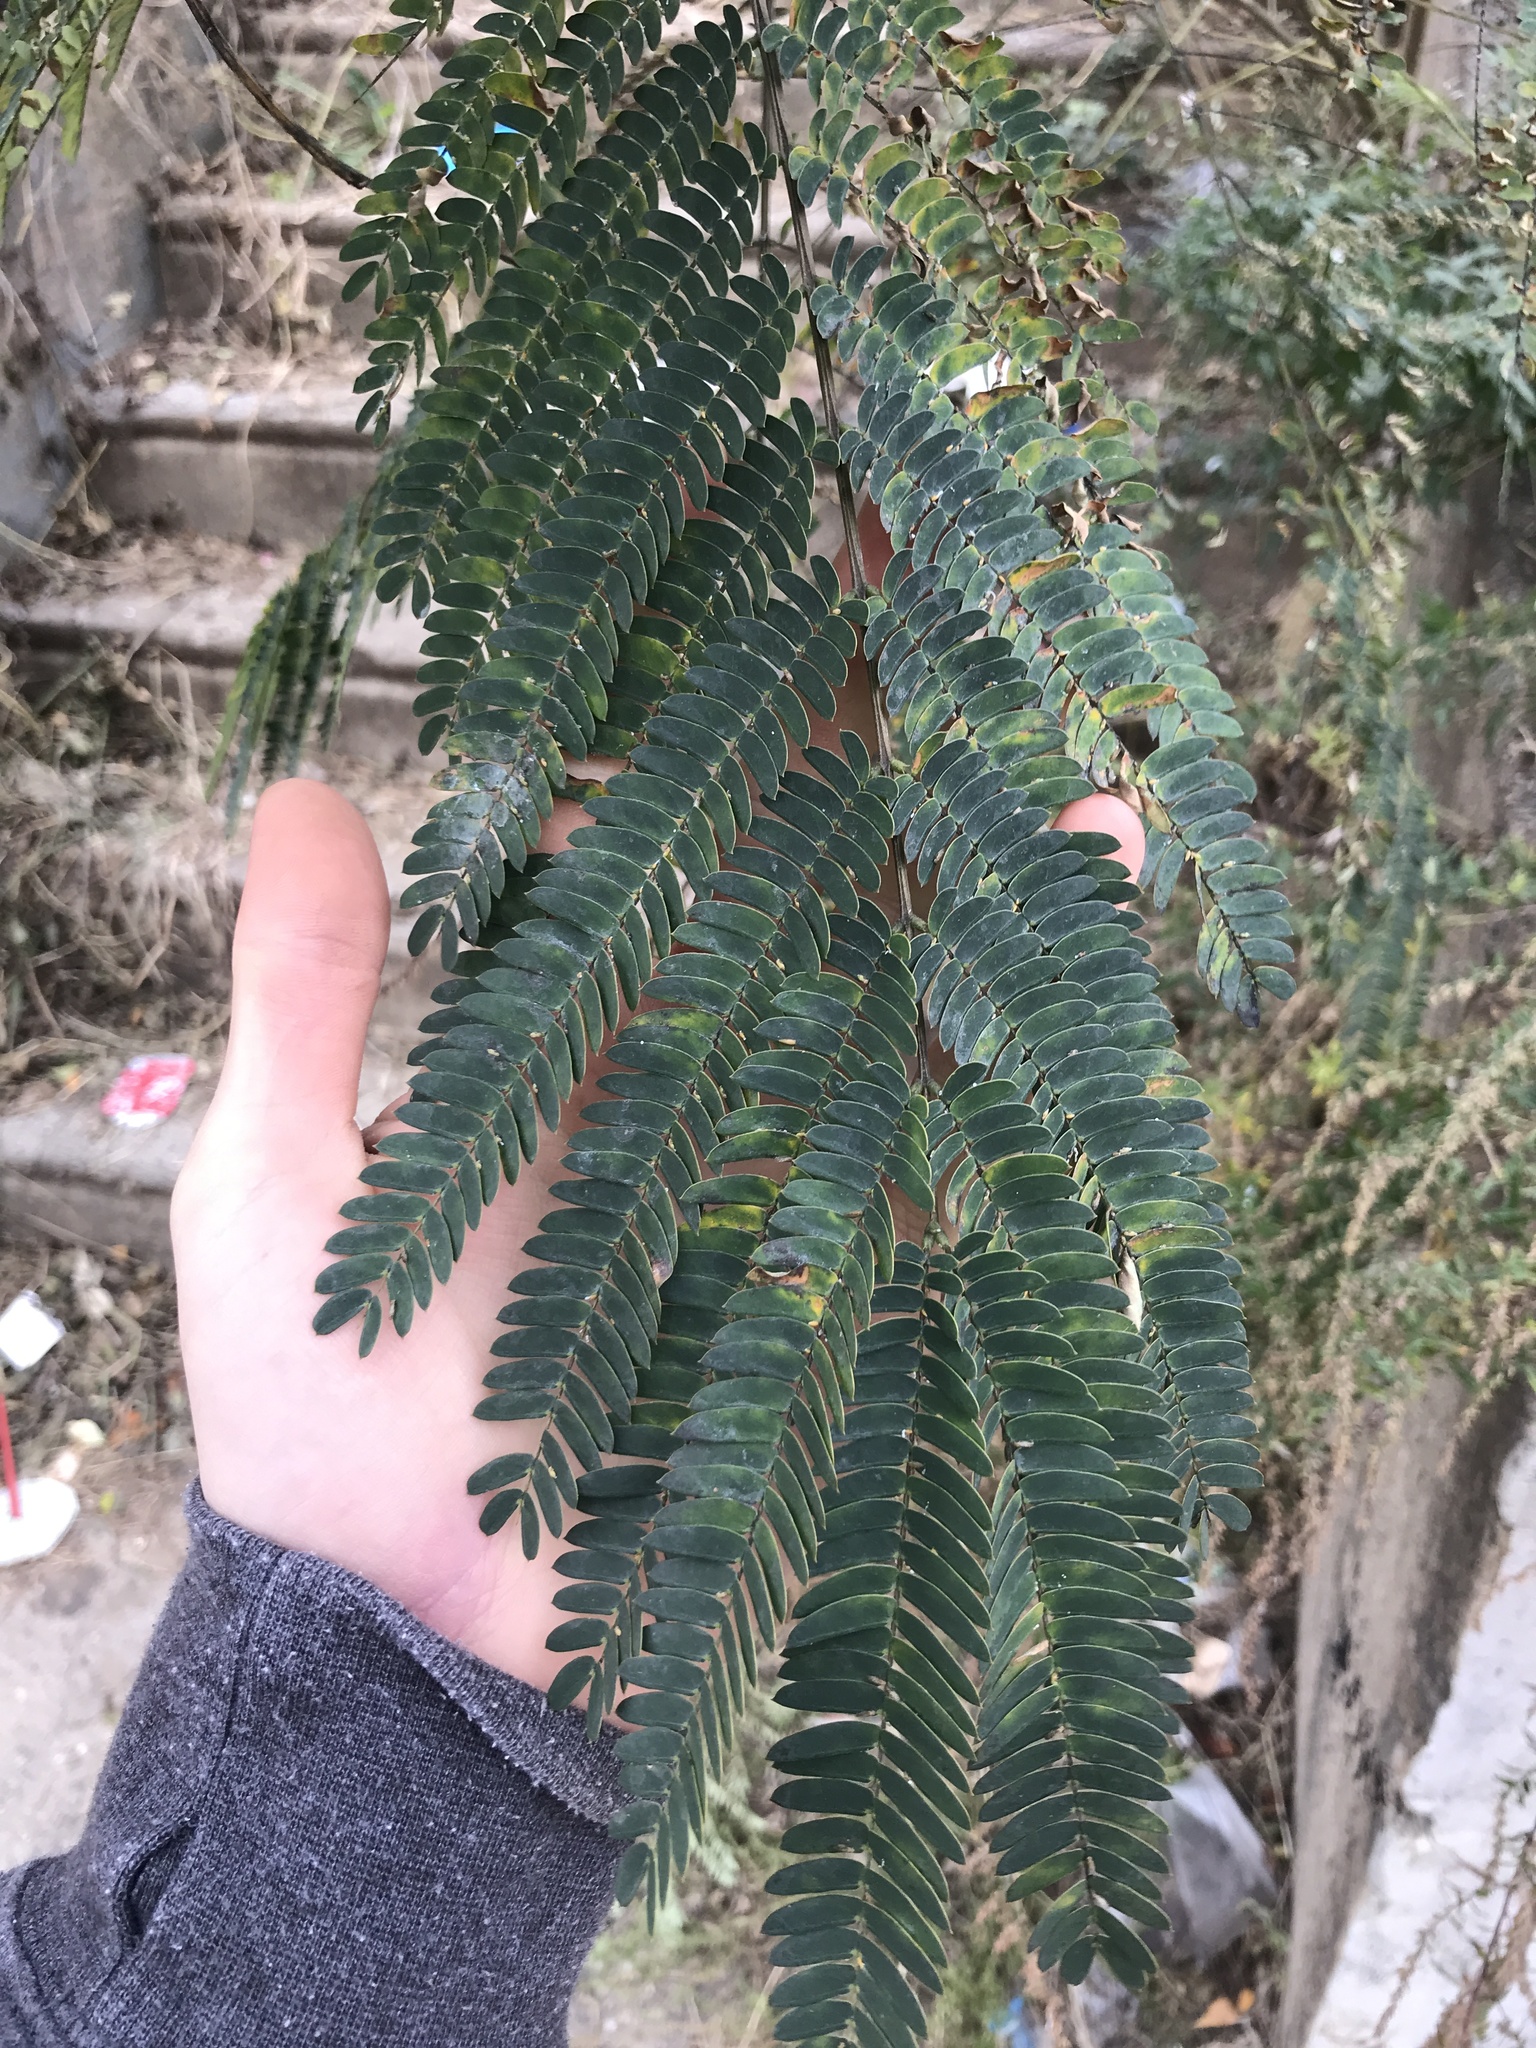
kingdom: Plantae
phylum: Tracheophyta
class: Magnoliopsida
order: Fabales
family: Fabaceae
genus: Albizia
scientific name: Albizia julibrissin
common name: Silktree
